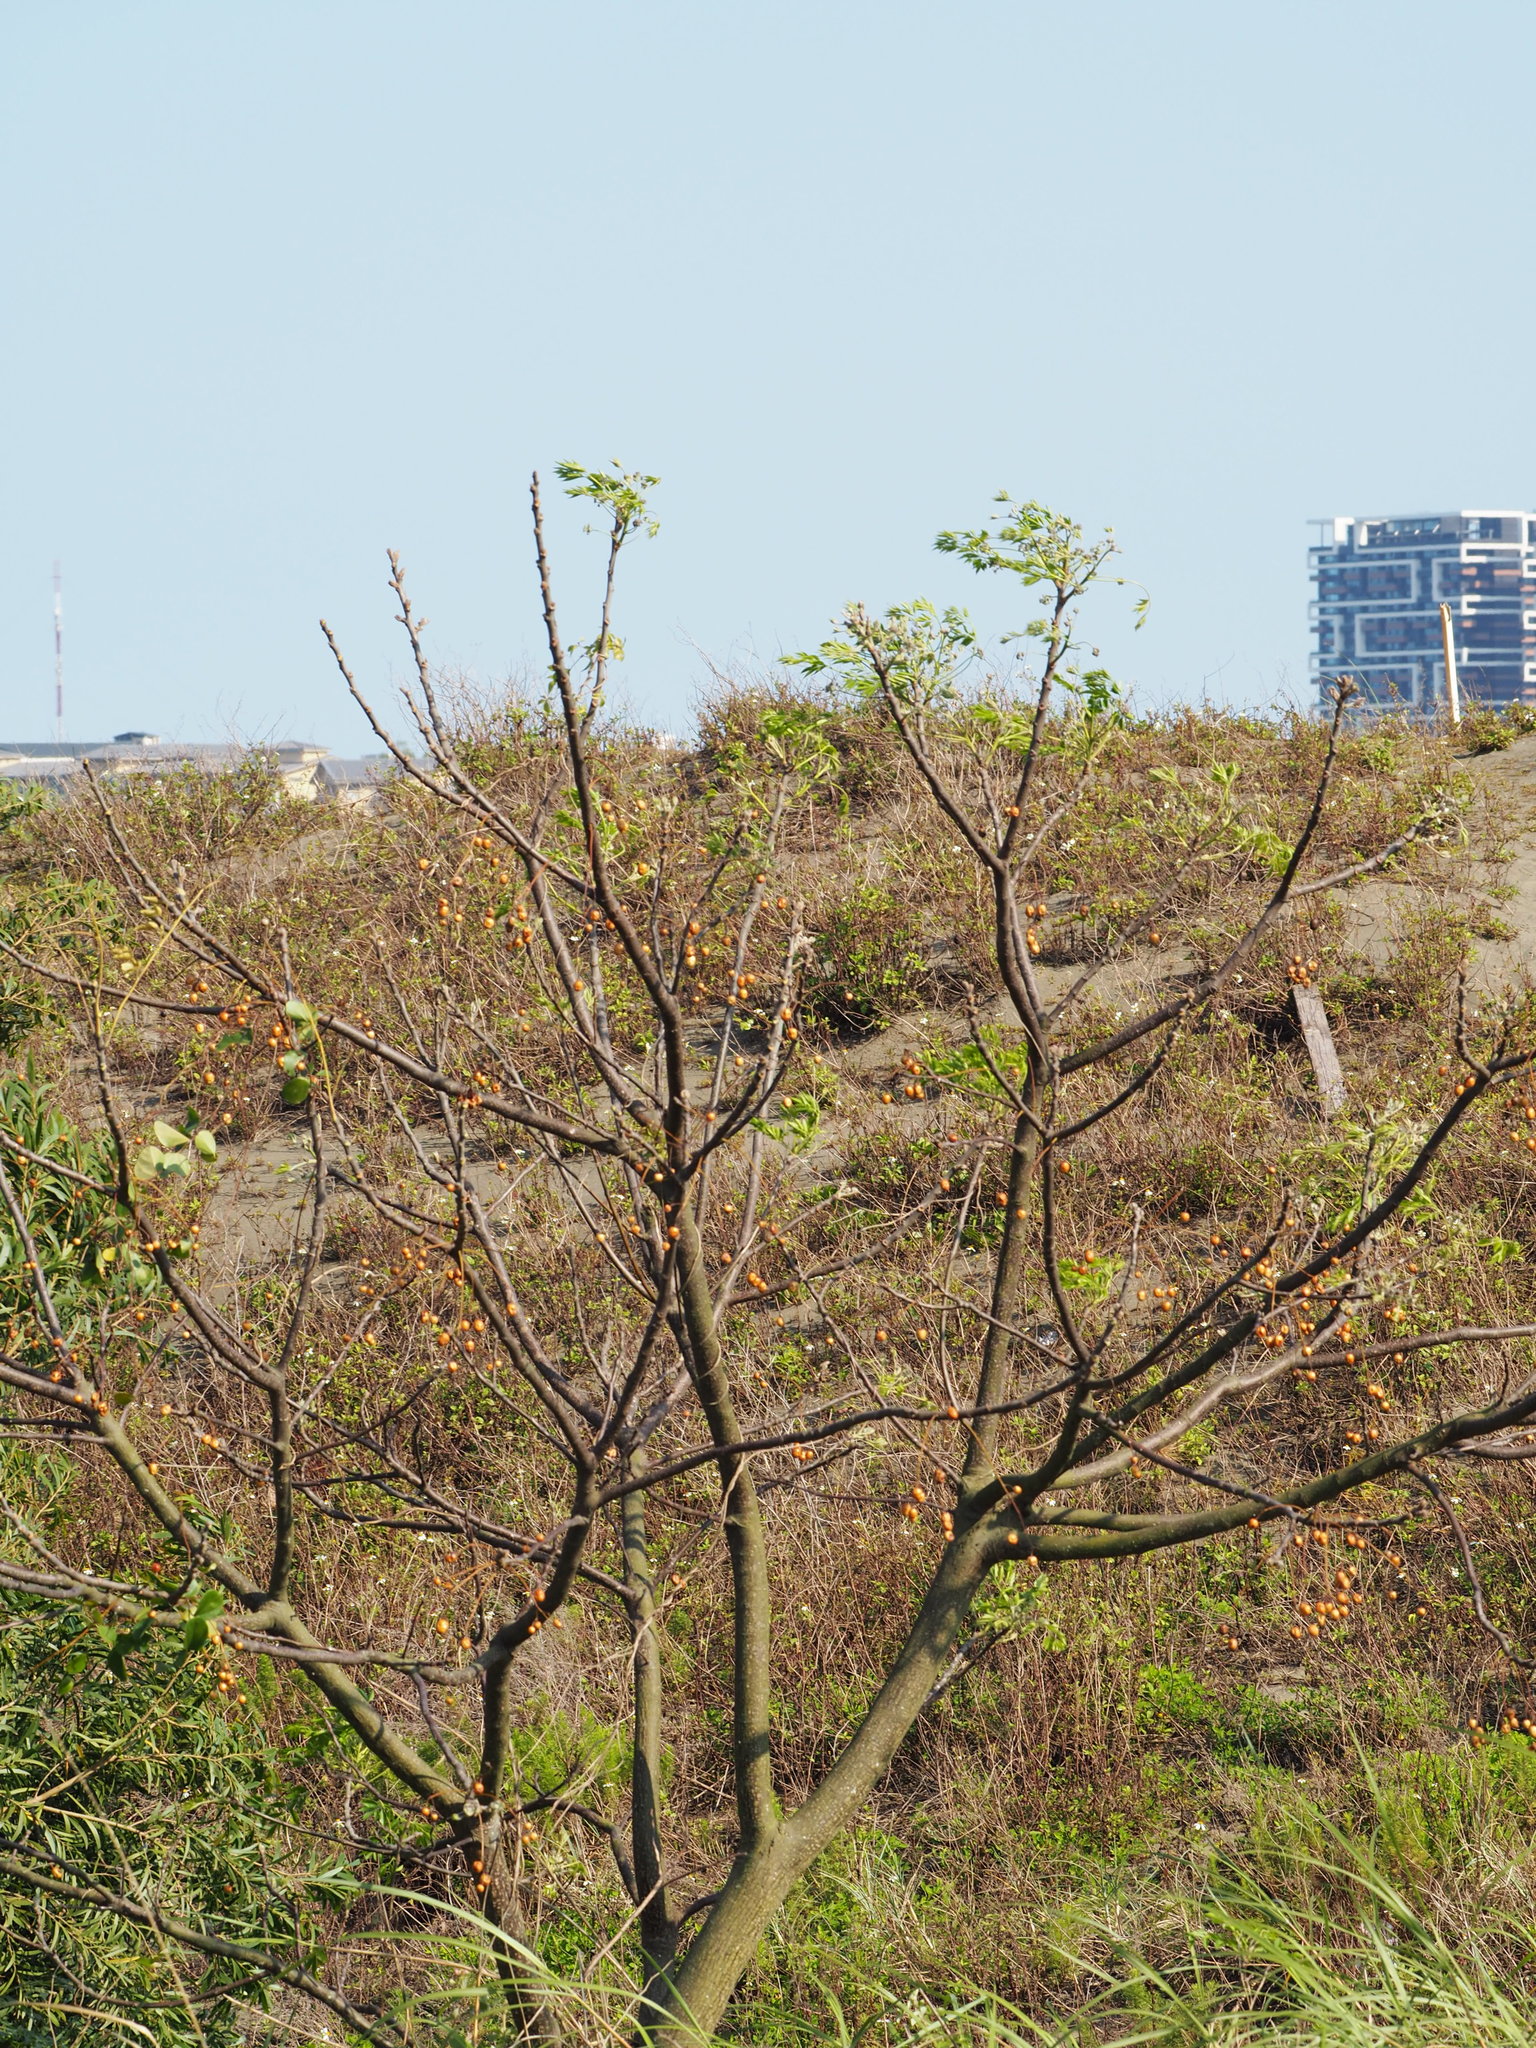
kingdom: Plantae
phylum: Tracheophyta
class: Magnoliopsida
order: Sapindales
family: Meliaceae
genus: Melia
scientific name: Melia azedarach
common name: Chinaberrytree
